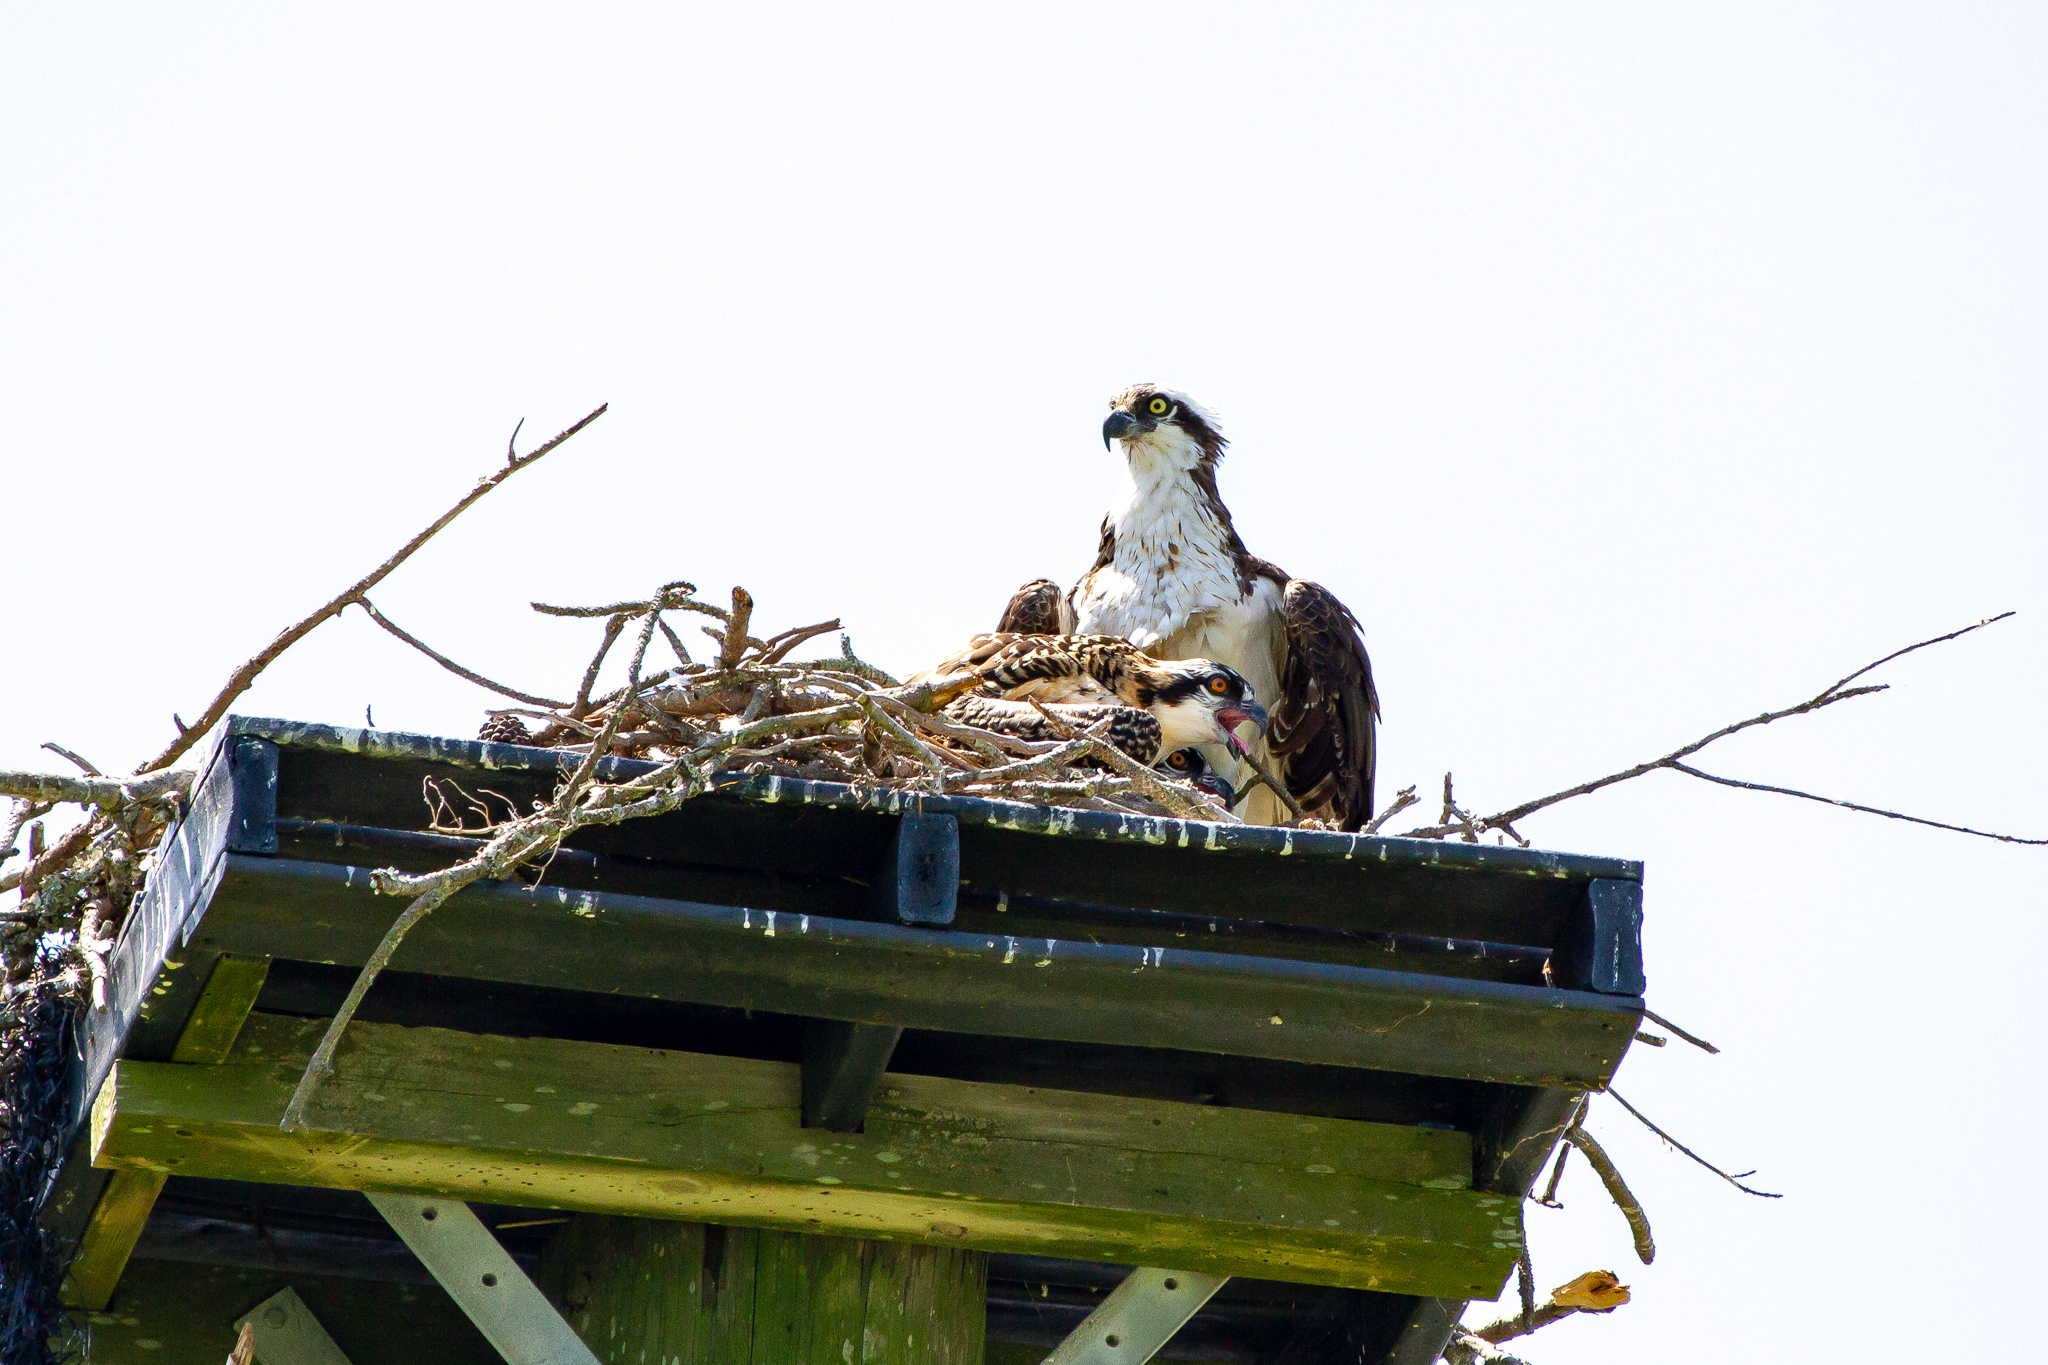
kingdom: Animalia
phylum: Chordata
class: Aves
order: Accipitriformes
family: Pandionidae
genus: Pandion
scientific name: Pandion haliaetus
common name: Osprey
